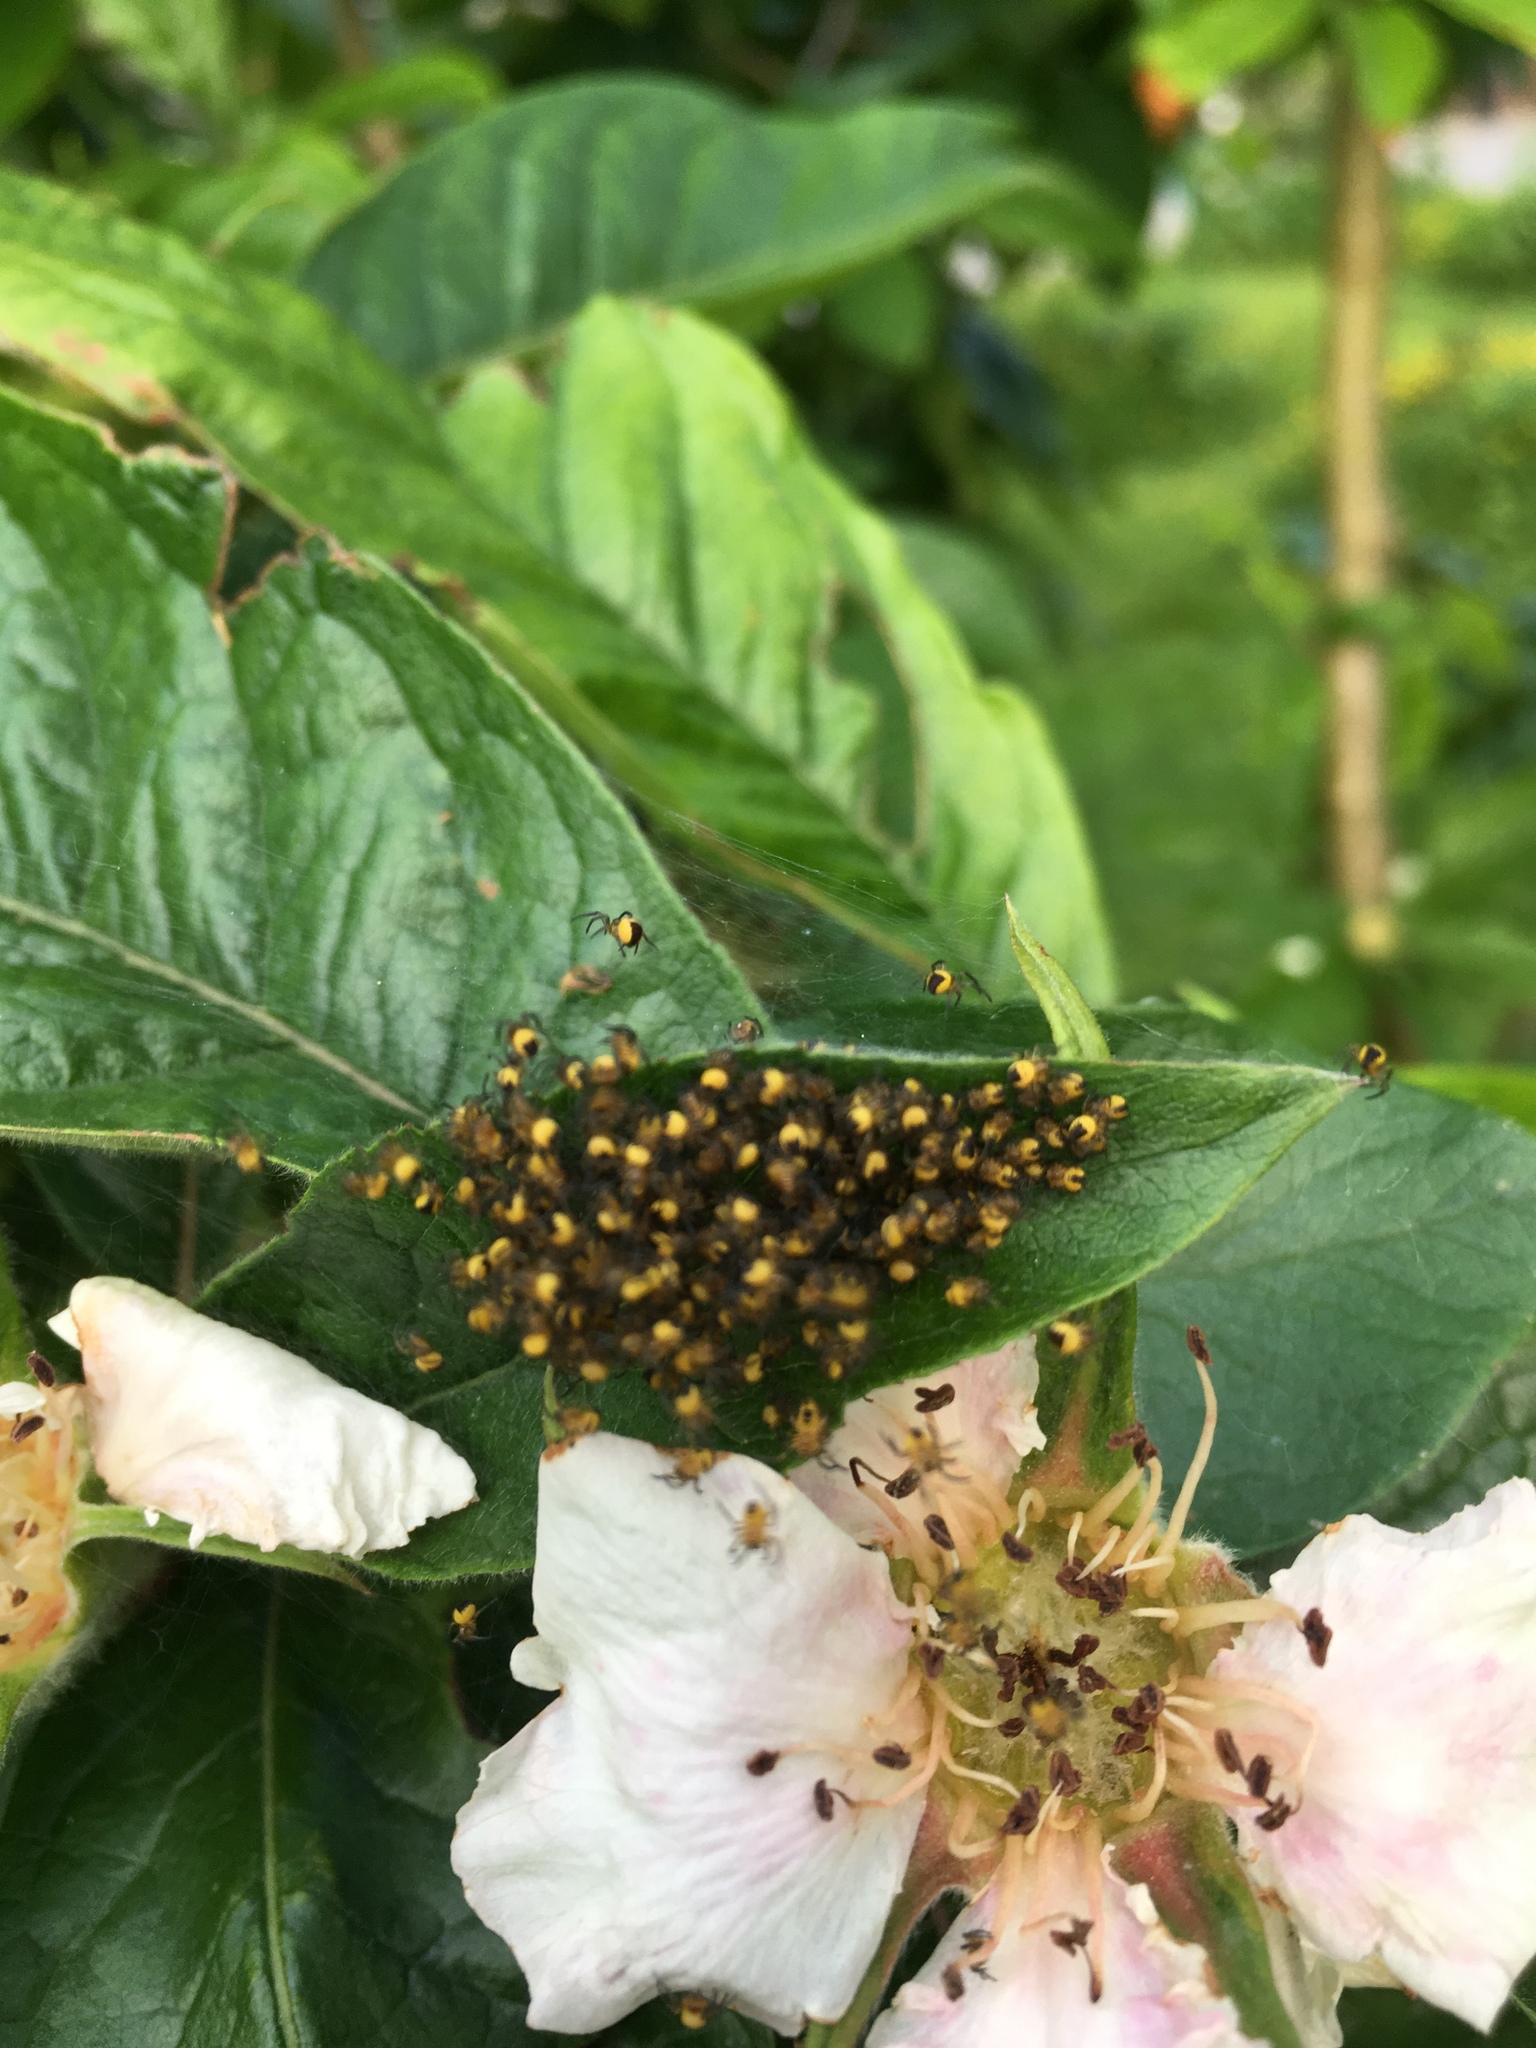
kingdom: Animalia
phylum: Arthropoda
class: Arachnida
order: Araneae
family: Araneidae
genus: Araneus
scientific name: Araneus diadematus
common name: Cross orbweaver
